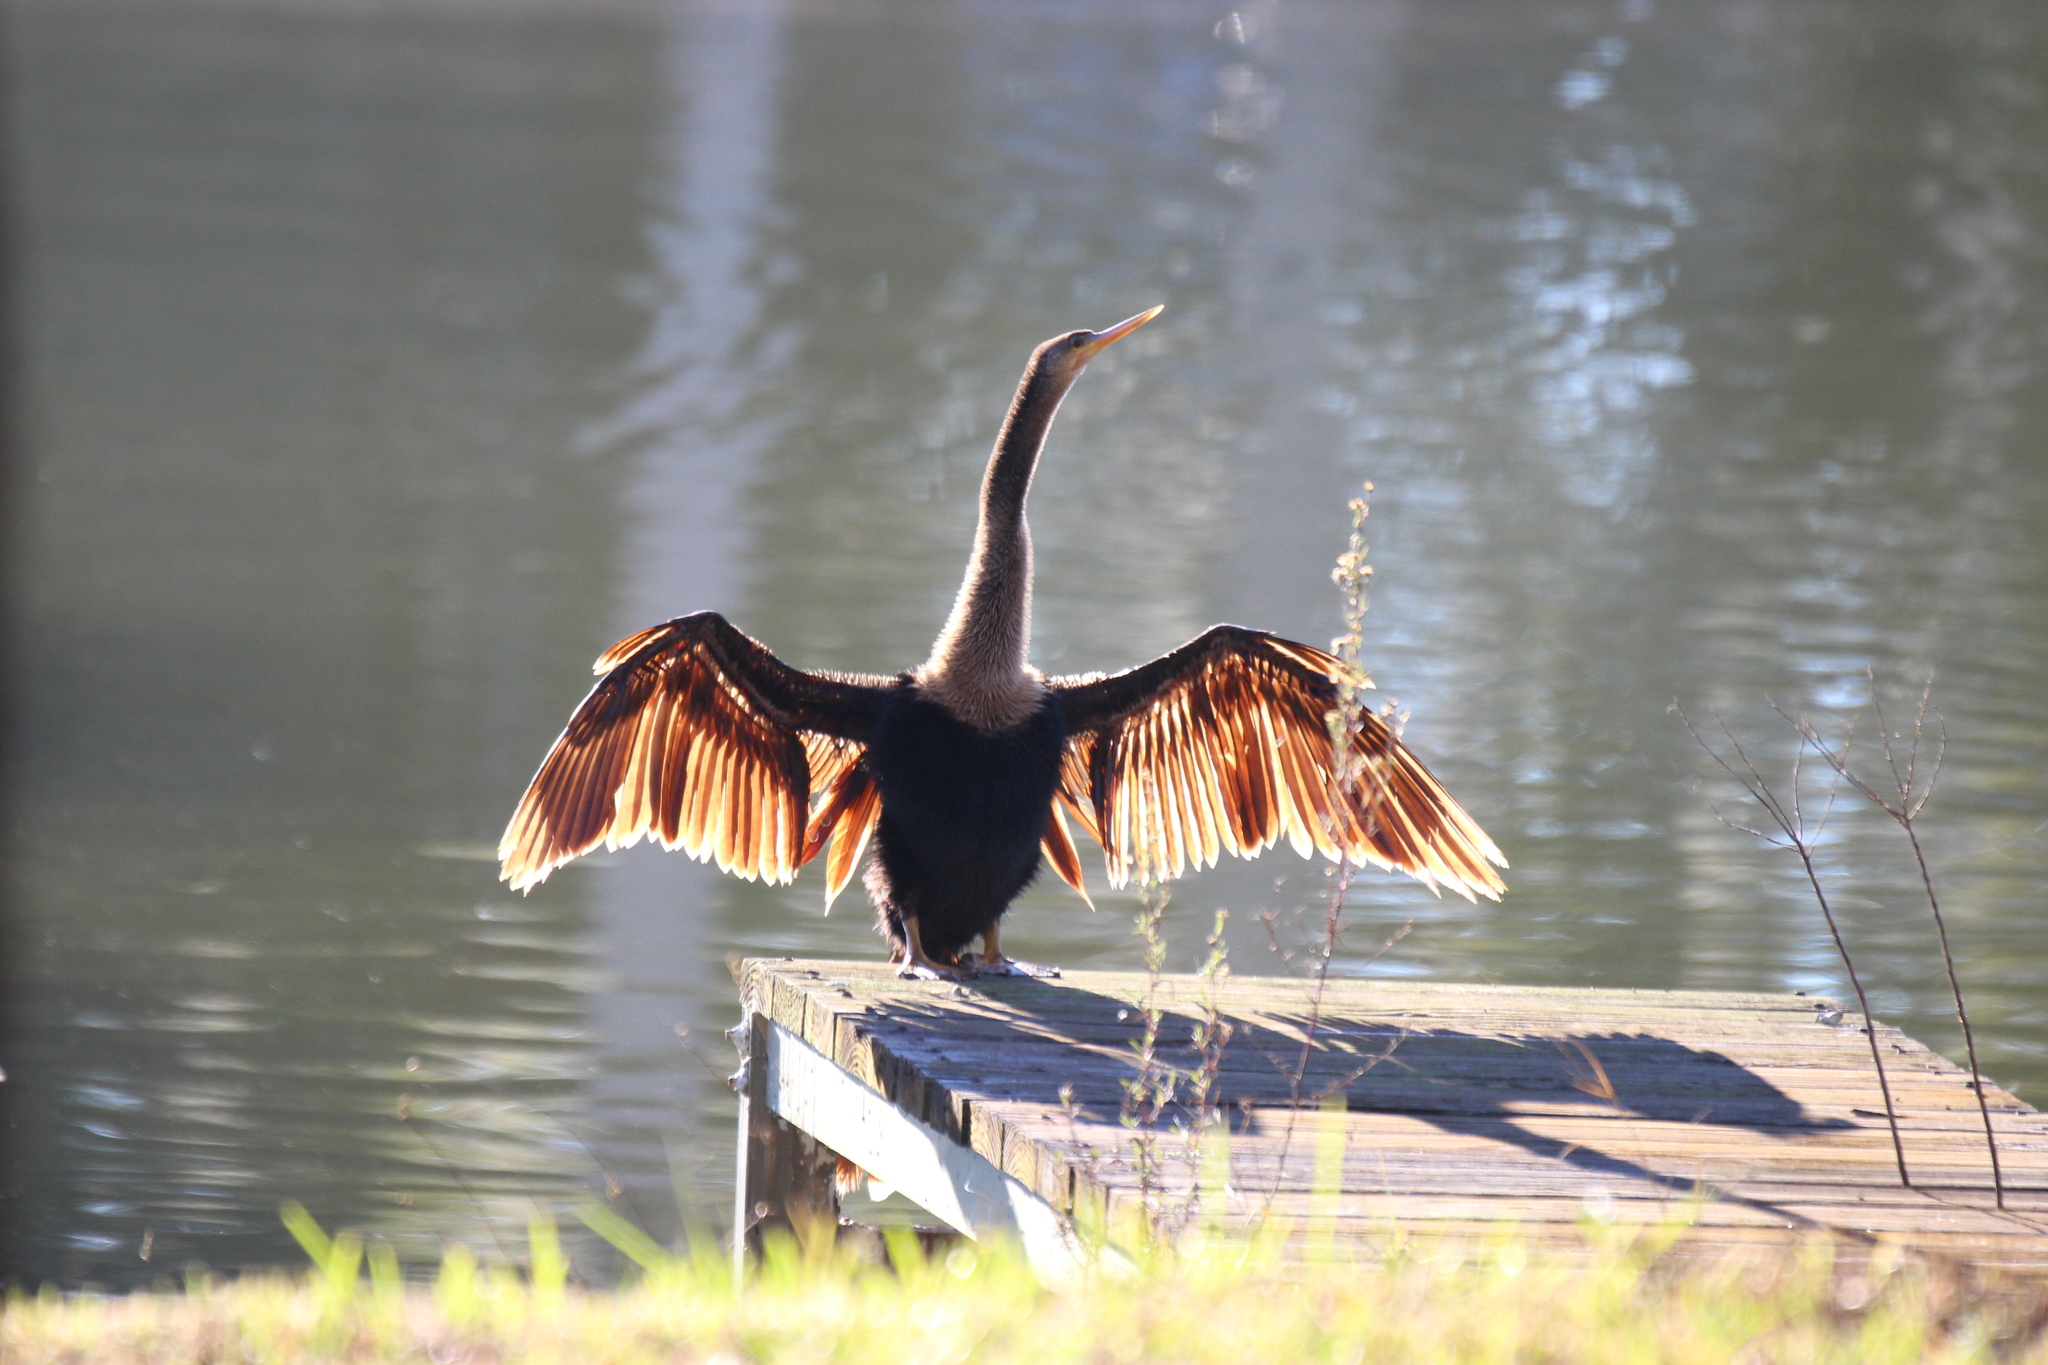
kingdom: Animalia
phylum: Chordata
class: Aves
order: Suliformes
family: Anhingidae
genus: Anhinga
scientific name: Anhinga anhinga
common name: Anhinga
